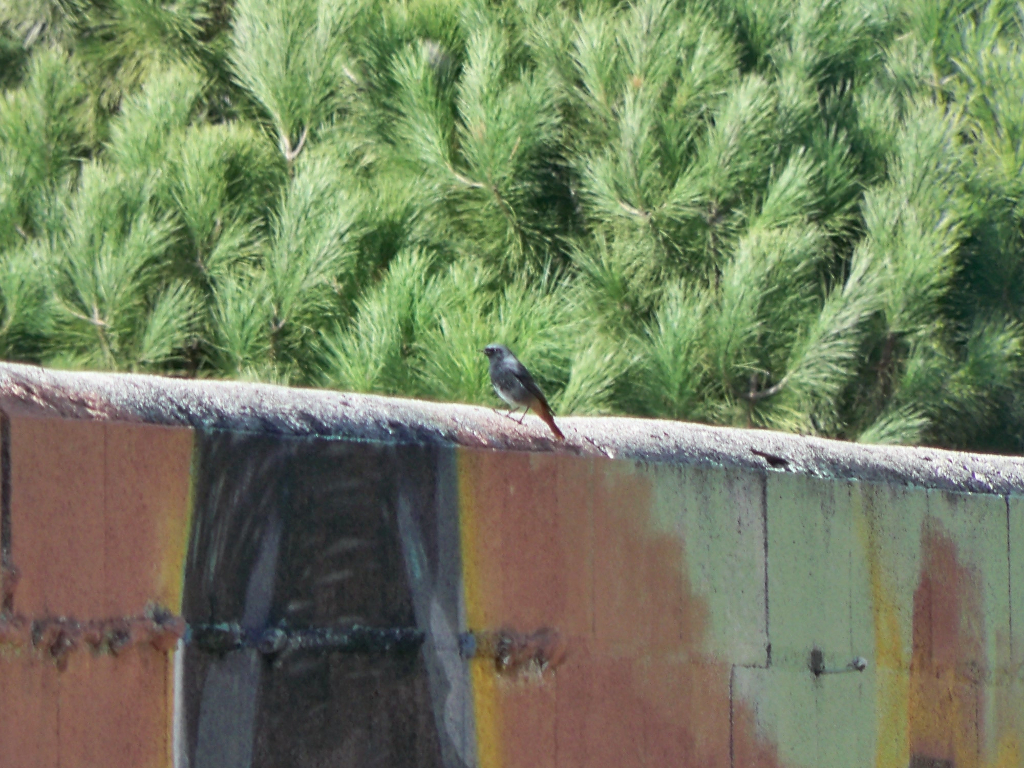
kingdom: Animalia
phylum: Chordata
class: Aves
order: Passeriformes
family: Muscicapidae
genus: Phoenicurus
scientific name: Phoenicurus ochruros
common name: Black redstart
